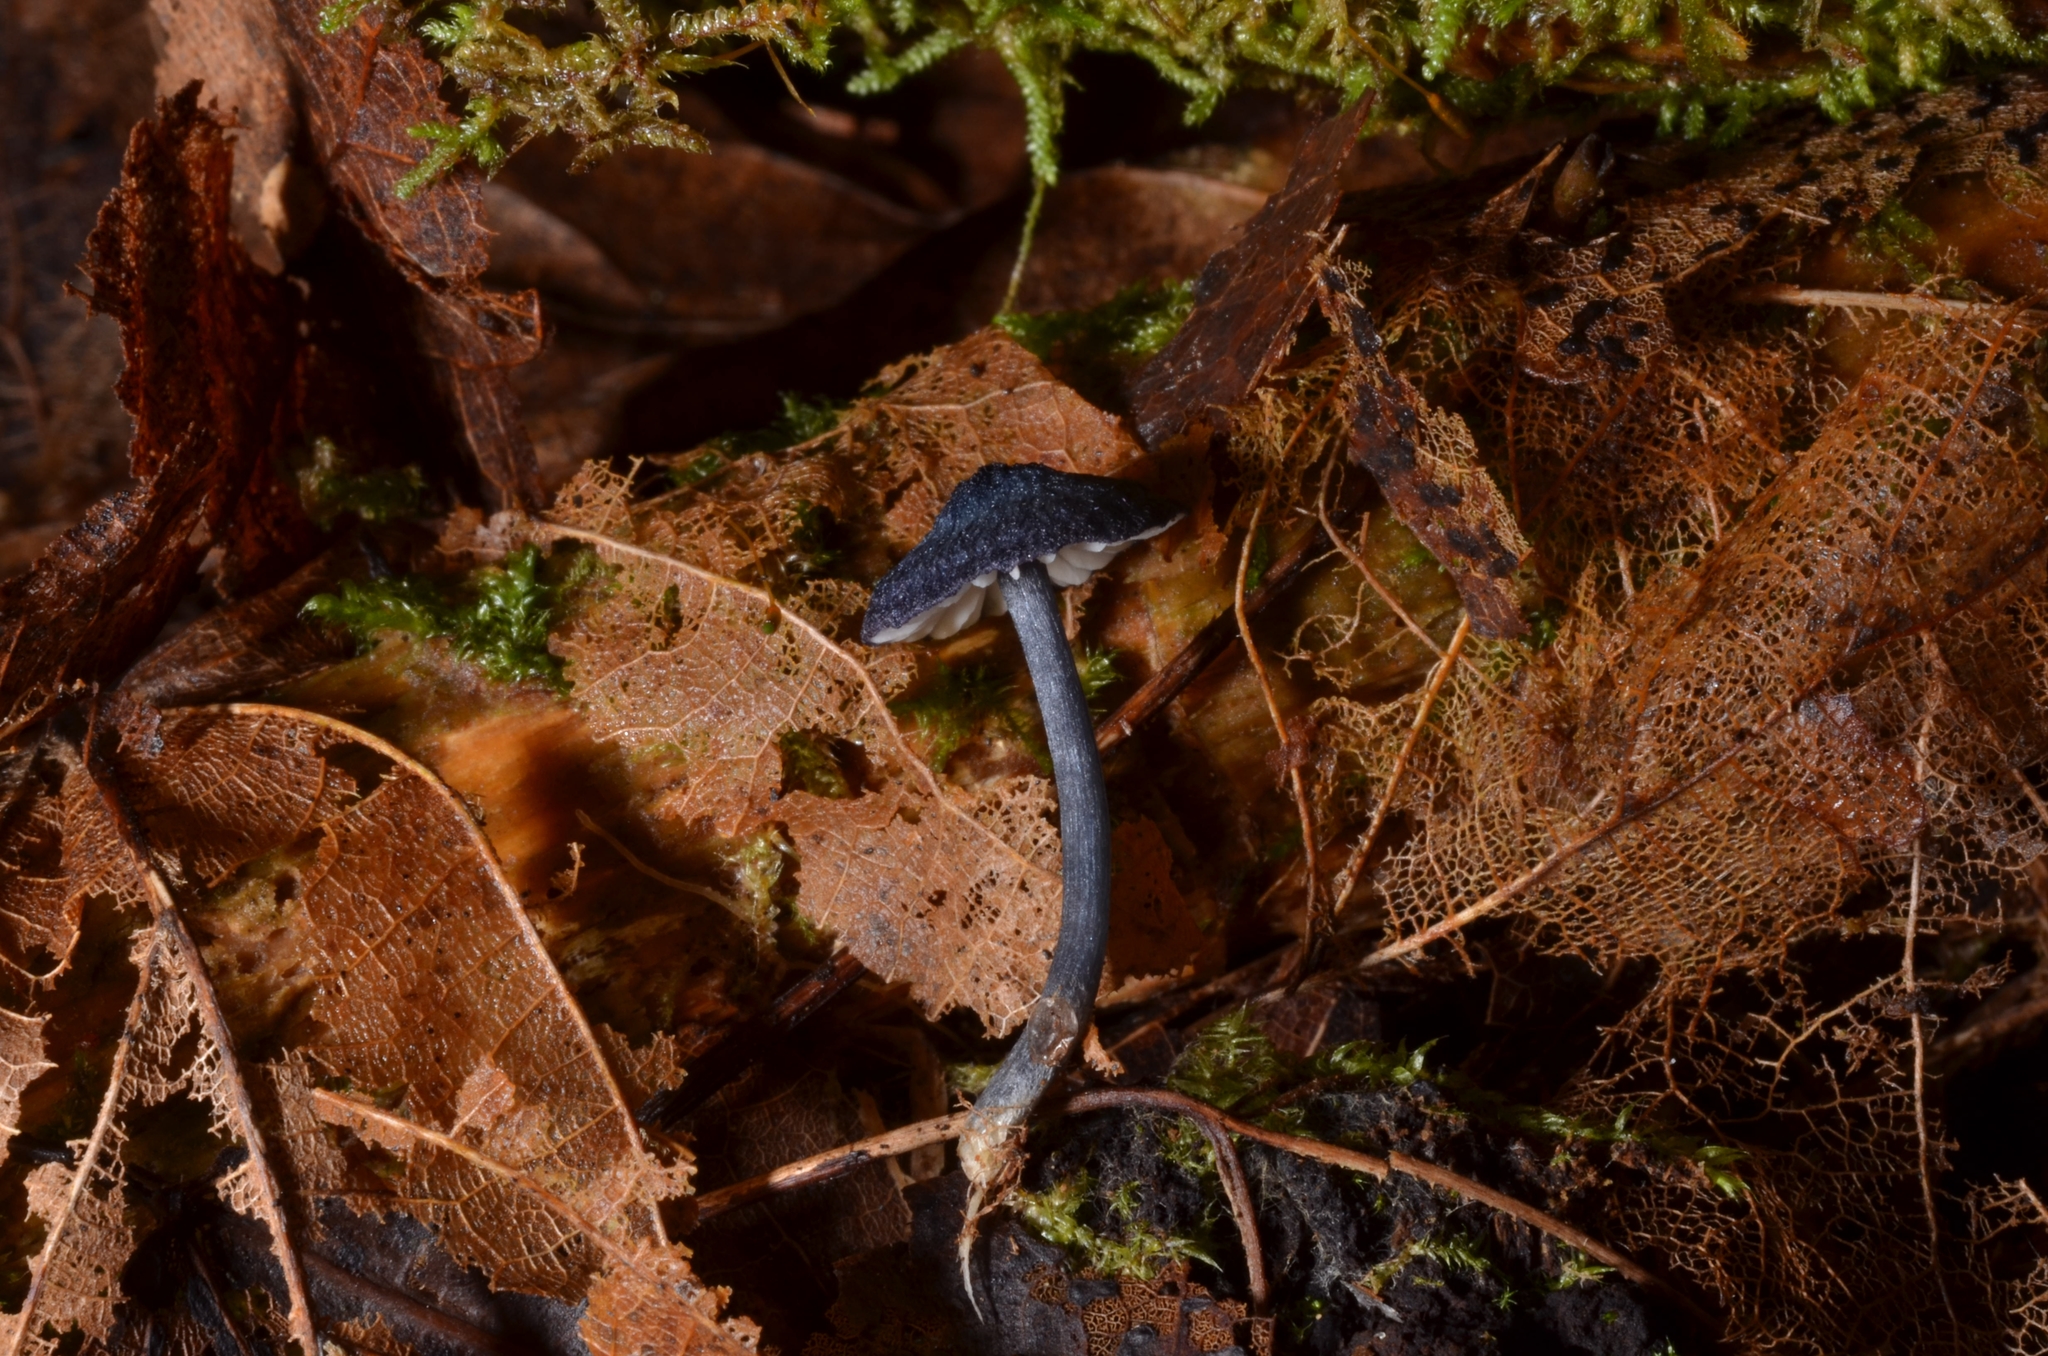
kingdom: Fungi
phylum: Basidiomycota
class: Agaricomycetes
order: Agaricales
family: Entolomataceae
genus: Entoloma
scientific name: Entoloma chytrophilum
